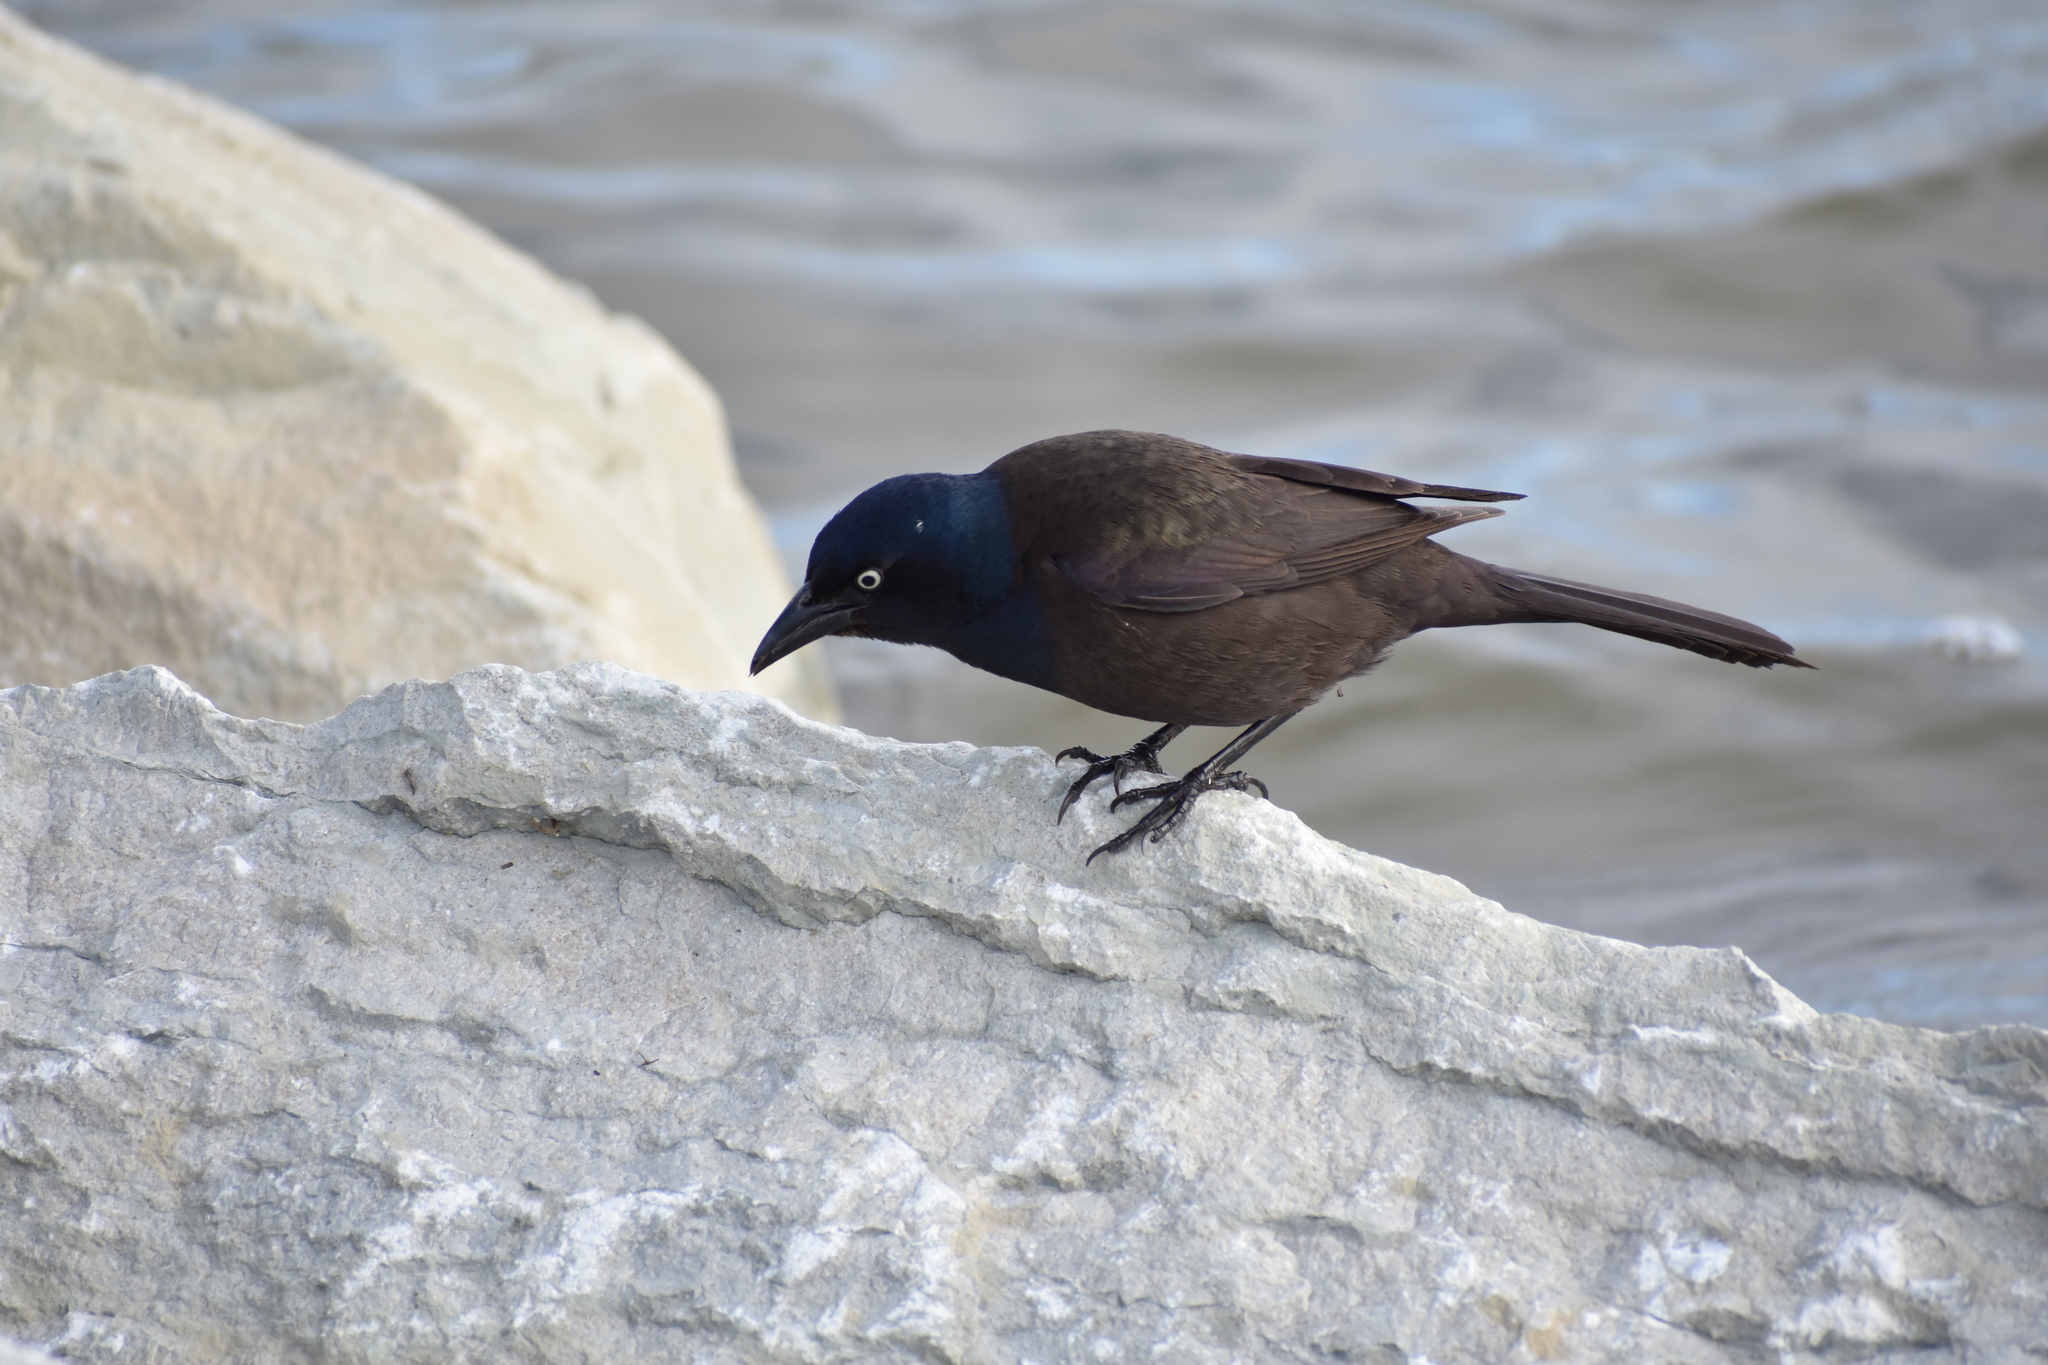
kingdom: Animalia
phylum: Chordata
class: Aves
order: Passeriformes
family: Icteridae
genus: Quiscalus
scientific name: Quiscalus quiscula
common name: Common grackle
